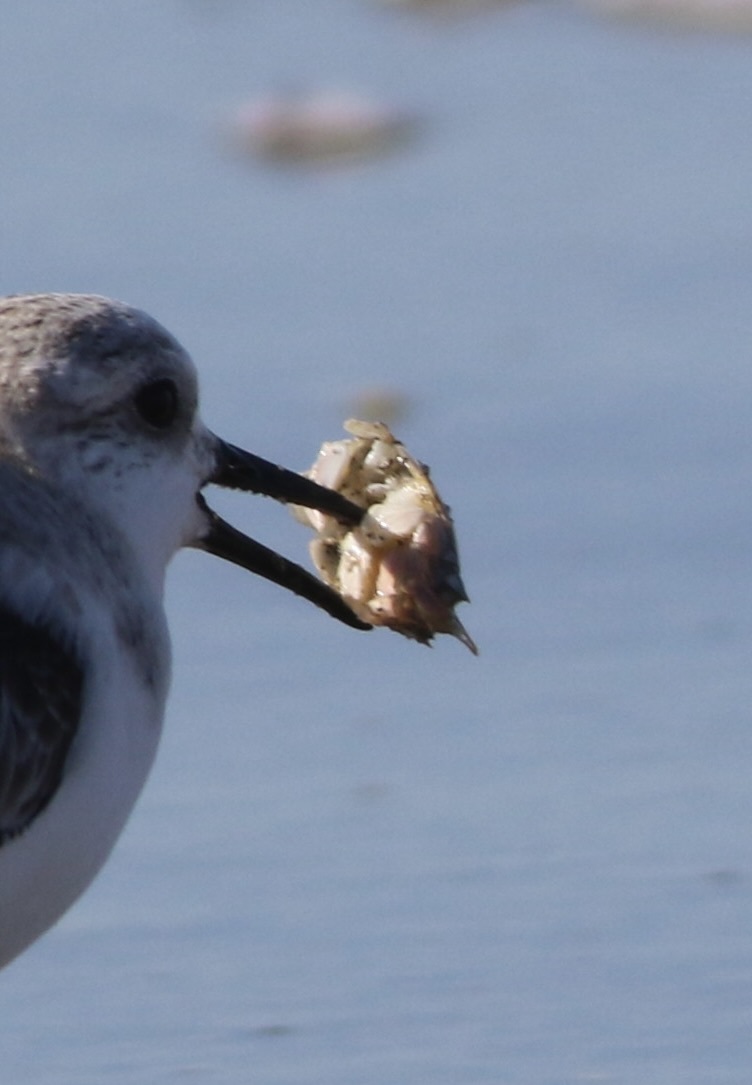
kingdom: Animalia
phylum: Arthropoda
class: Malacostraca
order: Decapoda
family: Hippidae
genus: Emerita
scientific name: Emerita analoga
